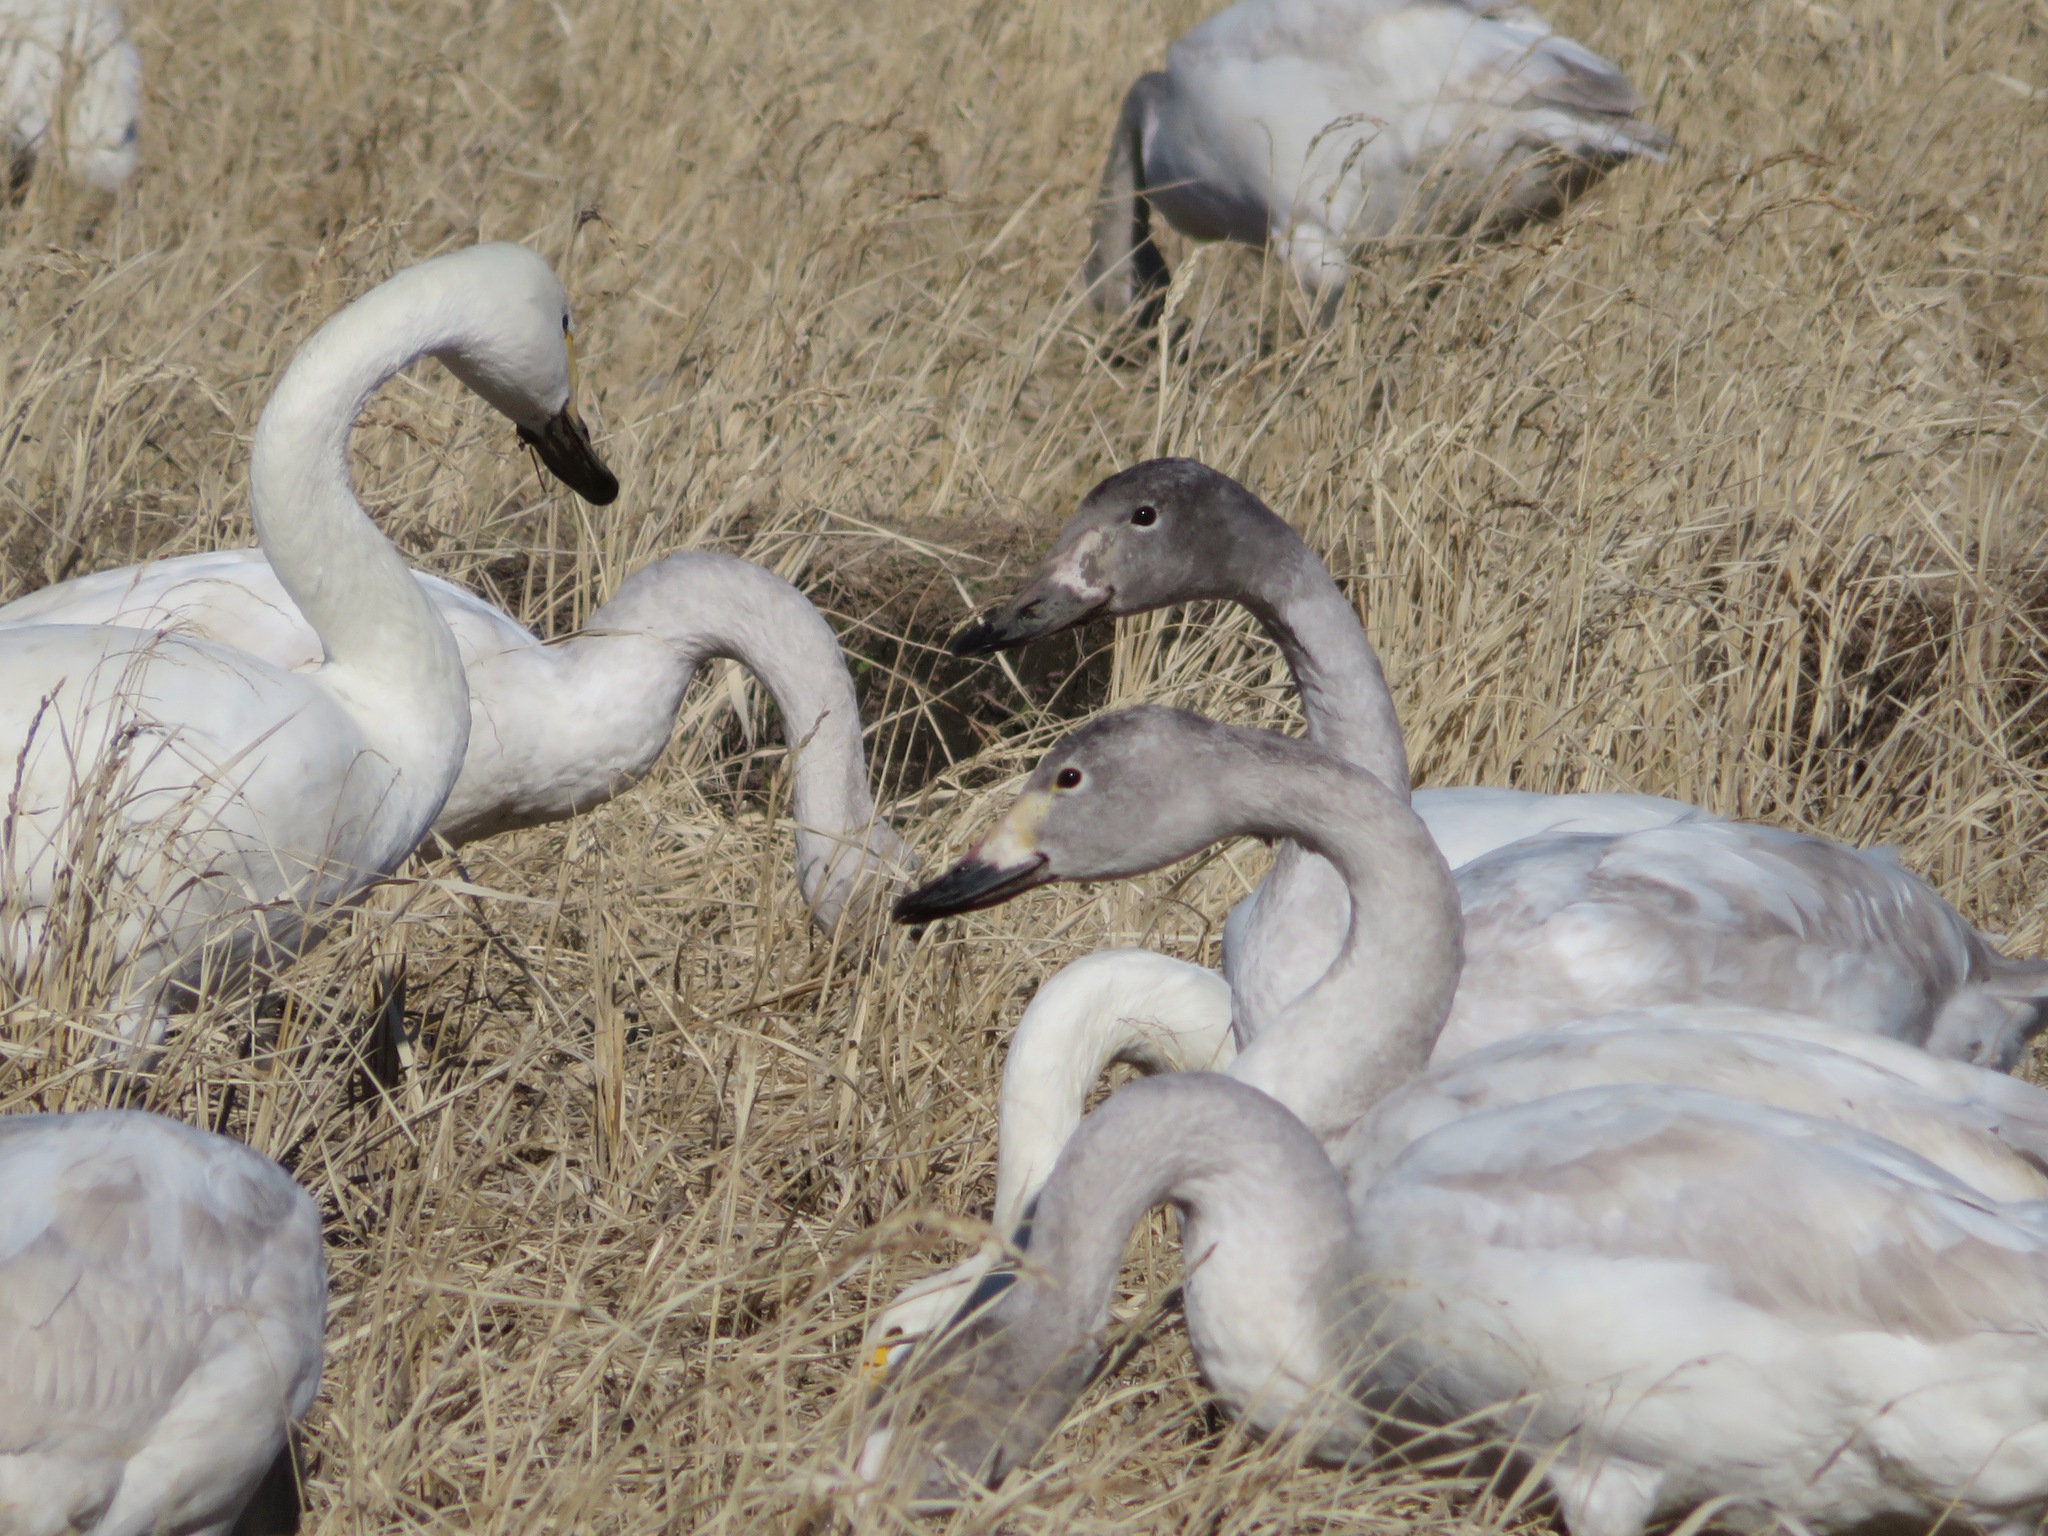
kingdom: Animalia
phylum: Chordata
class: Aves
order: Anseriformes
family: Anatidae
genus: Cygnus
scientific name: Cygnus columbianus
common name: Tundra swan
